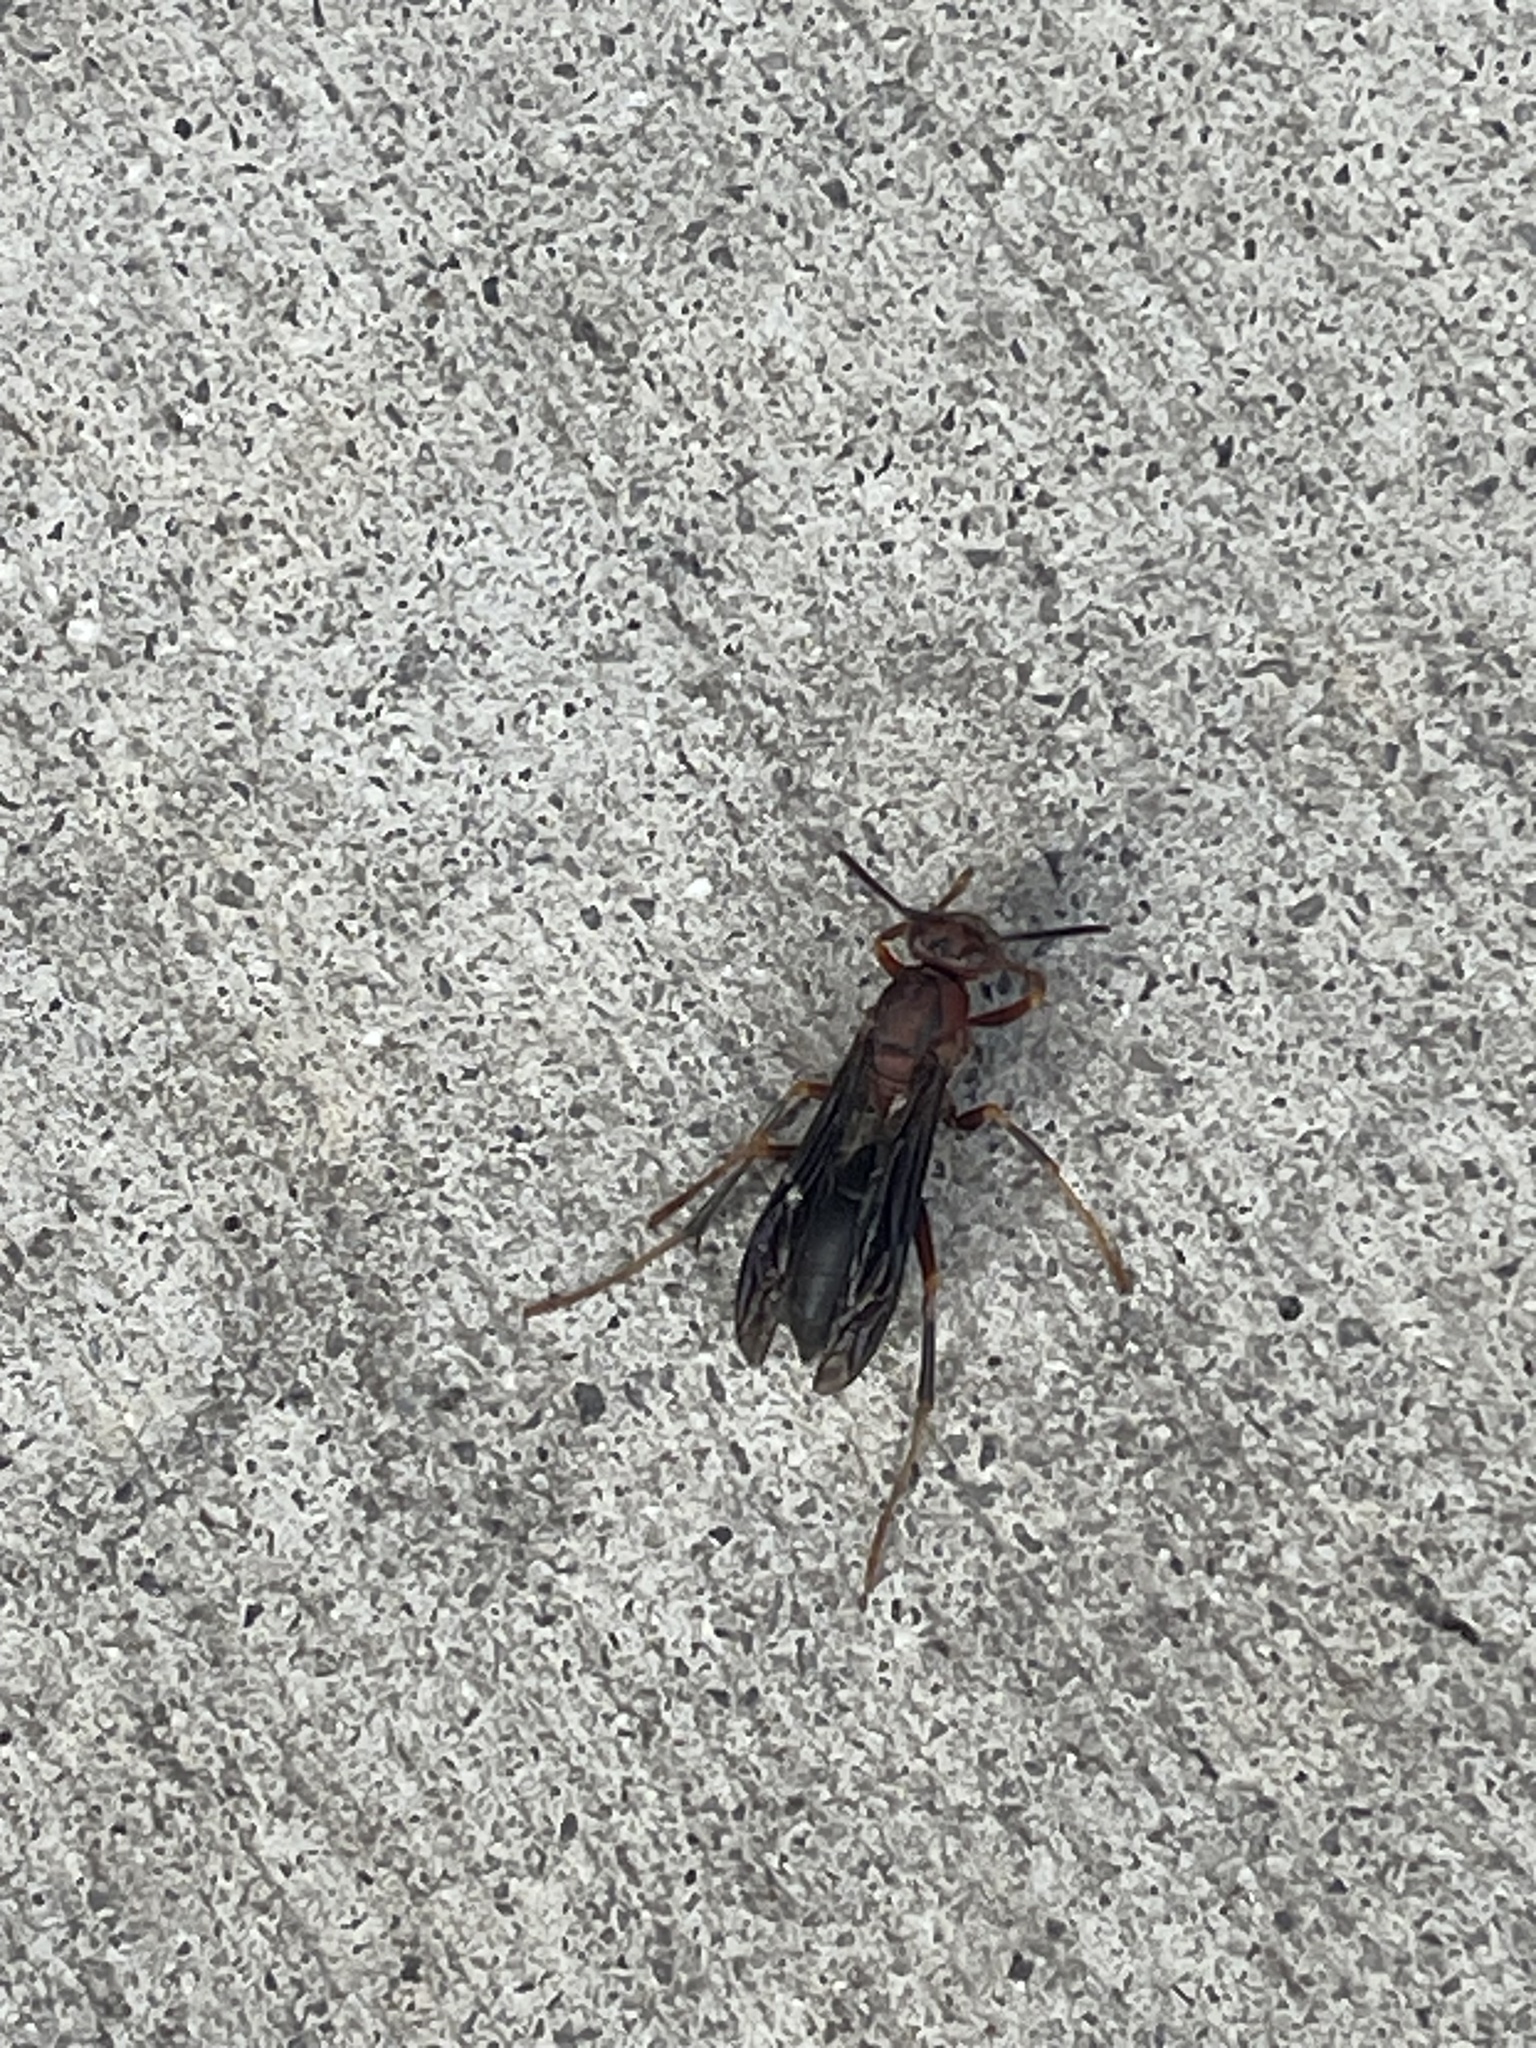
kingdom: Animalia
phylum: Arthropoda
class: Insecta
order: Hymenoptera
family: Eumenidae
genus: Polistes
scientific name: Polistes metricus
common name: Metric paper wasp
